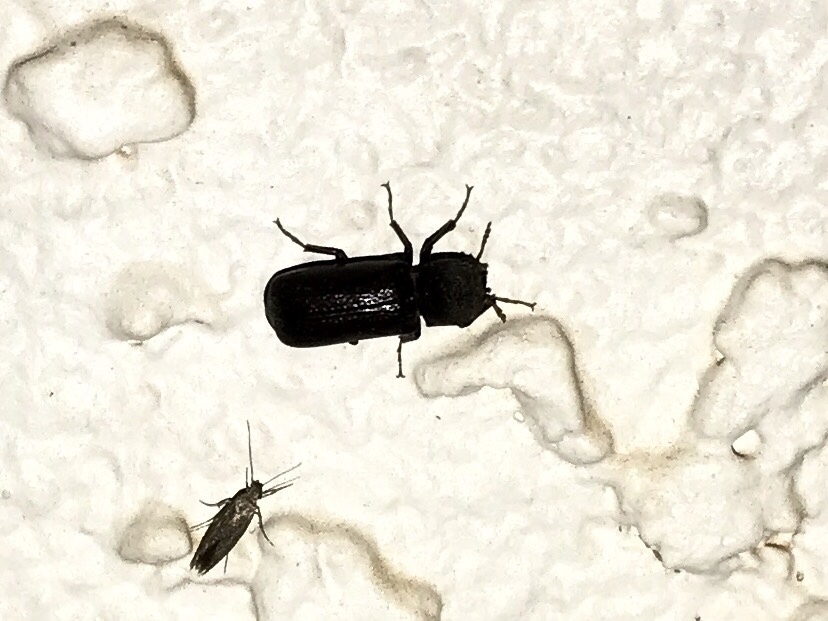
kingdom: Animalia
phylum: Arthropoda
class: Insecta
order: Coleoptera
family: Bostrichidae
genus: Apatides
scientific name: Apatides fortis
